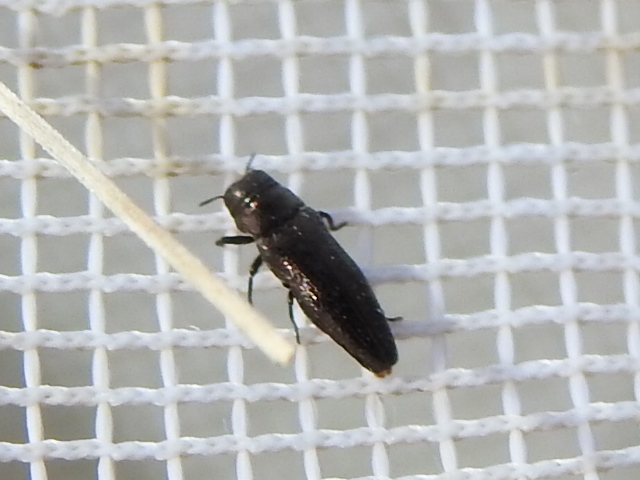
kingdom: Animalia
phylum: Arthropoda
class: Insecta
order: Coleoptera
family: Buprestidae
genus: Taphrocerus
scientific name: Taphrocerus agriloides
